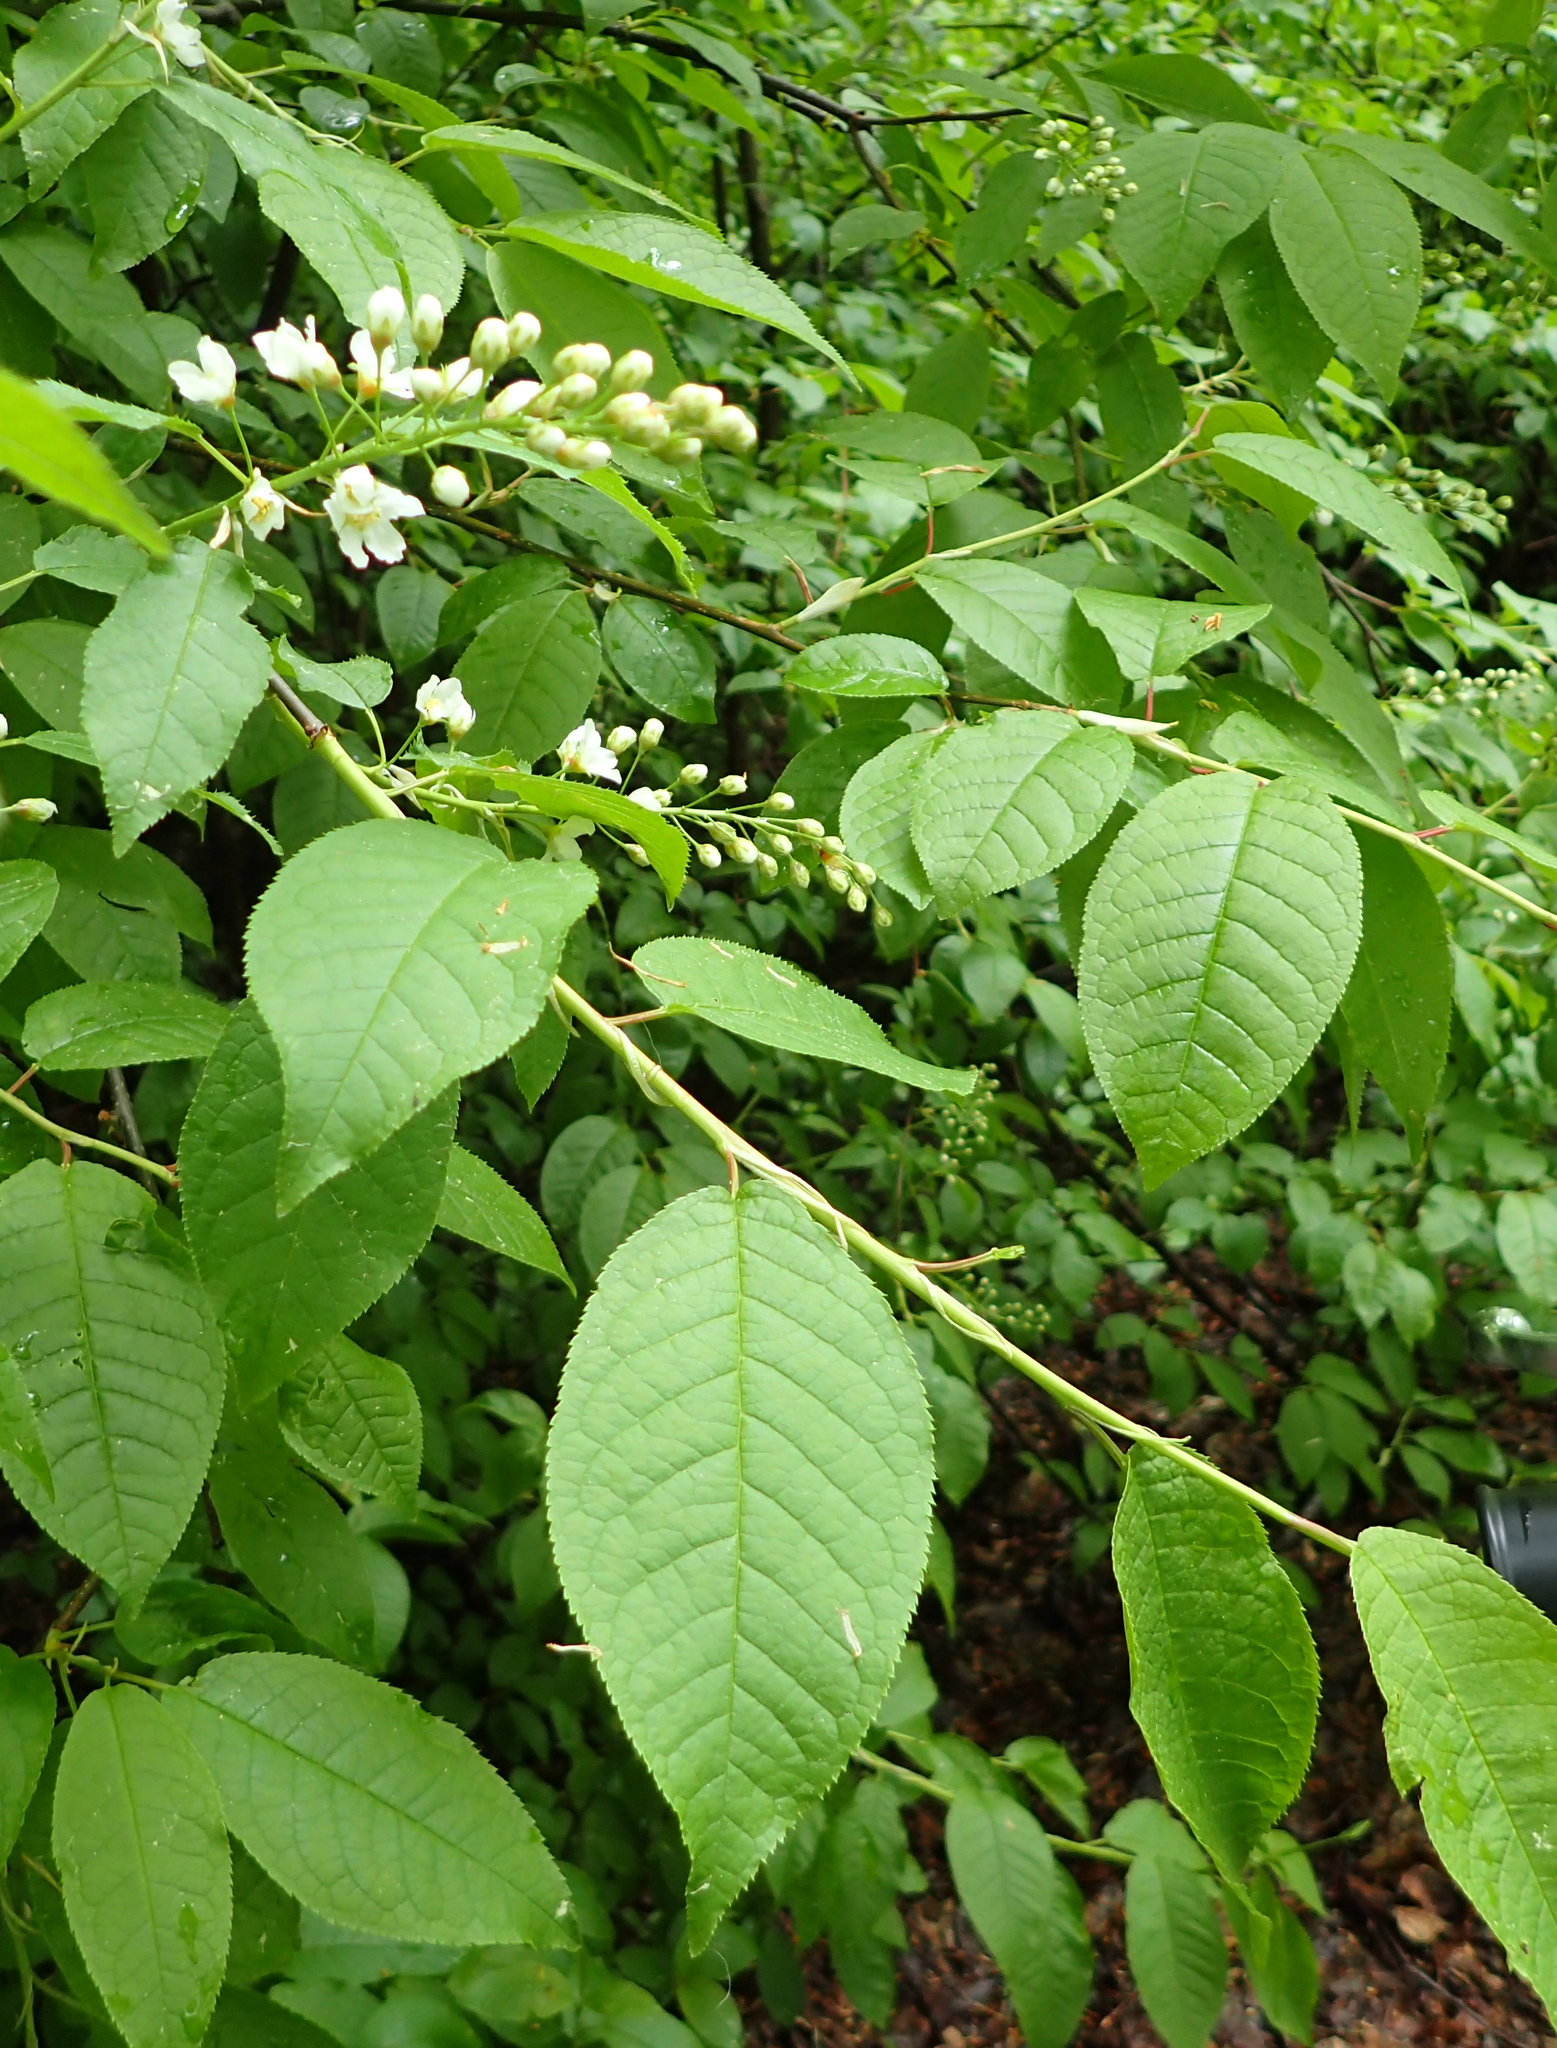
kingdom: Plantae
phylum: Tracheophyta
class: Magnoliopsida
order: Rosales
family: Rosaceae
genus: Prunus
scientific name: Prunus padus
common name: Bird cherry
